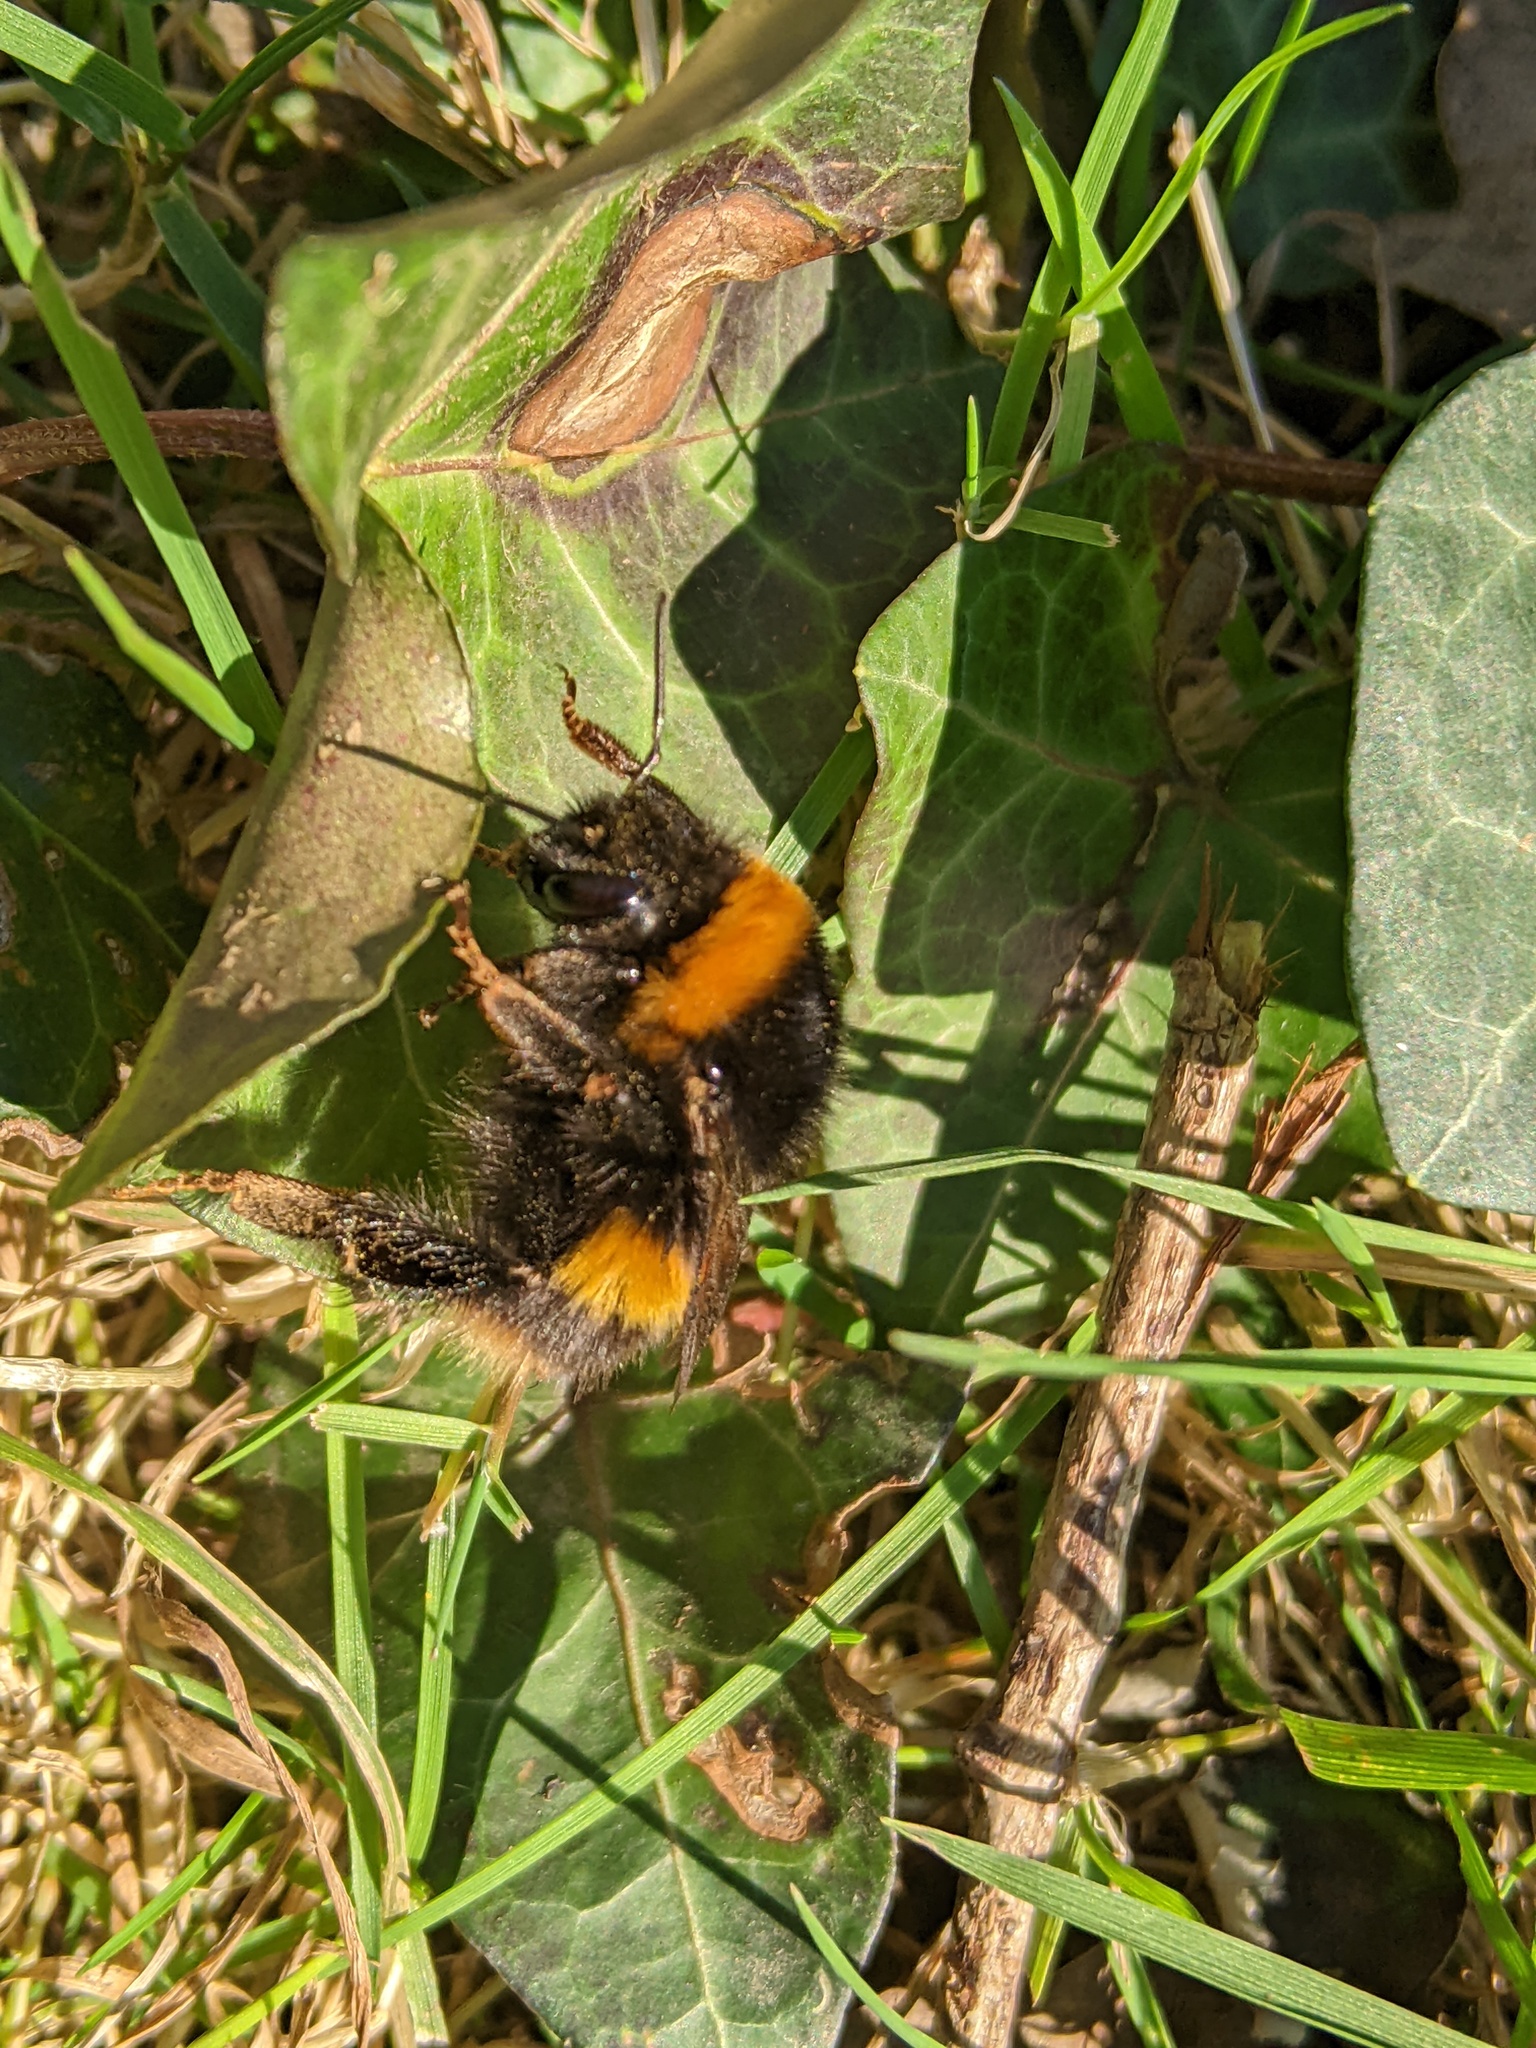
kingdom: Animalia
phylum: Arthropoda
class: Insecta
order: Hymenoptera
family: Apidae
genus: Bombus
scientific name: Bombus terrestris
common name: Buff-tailed bumblebee
